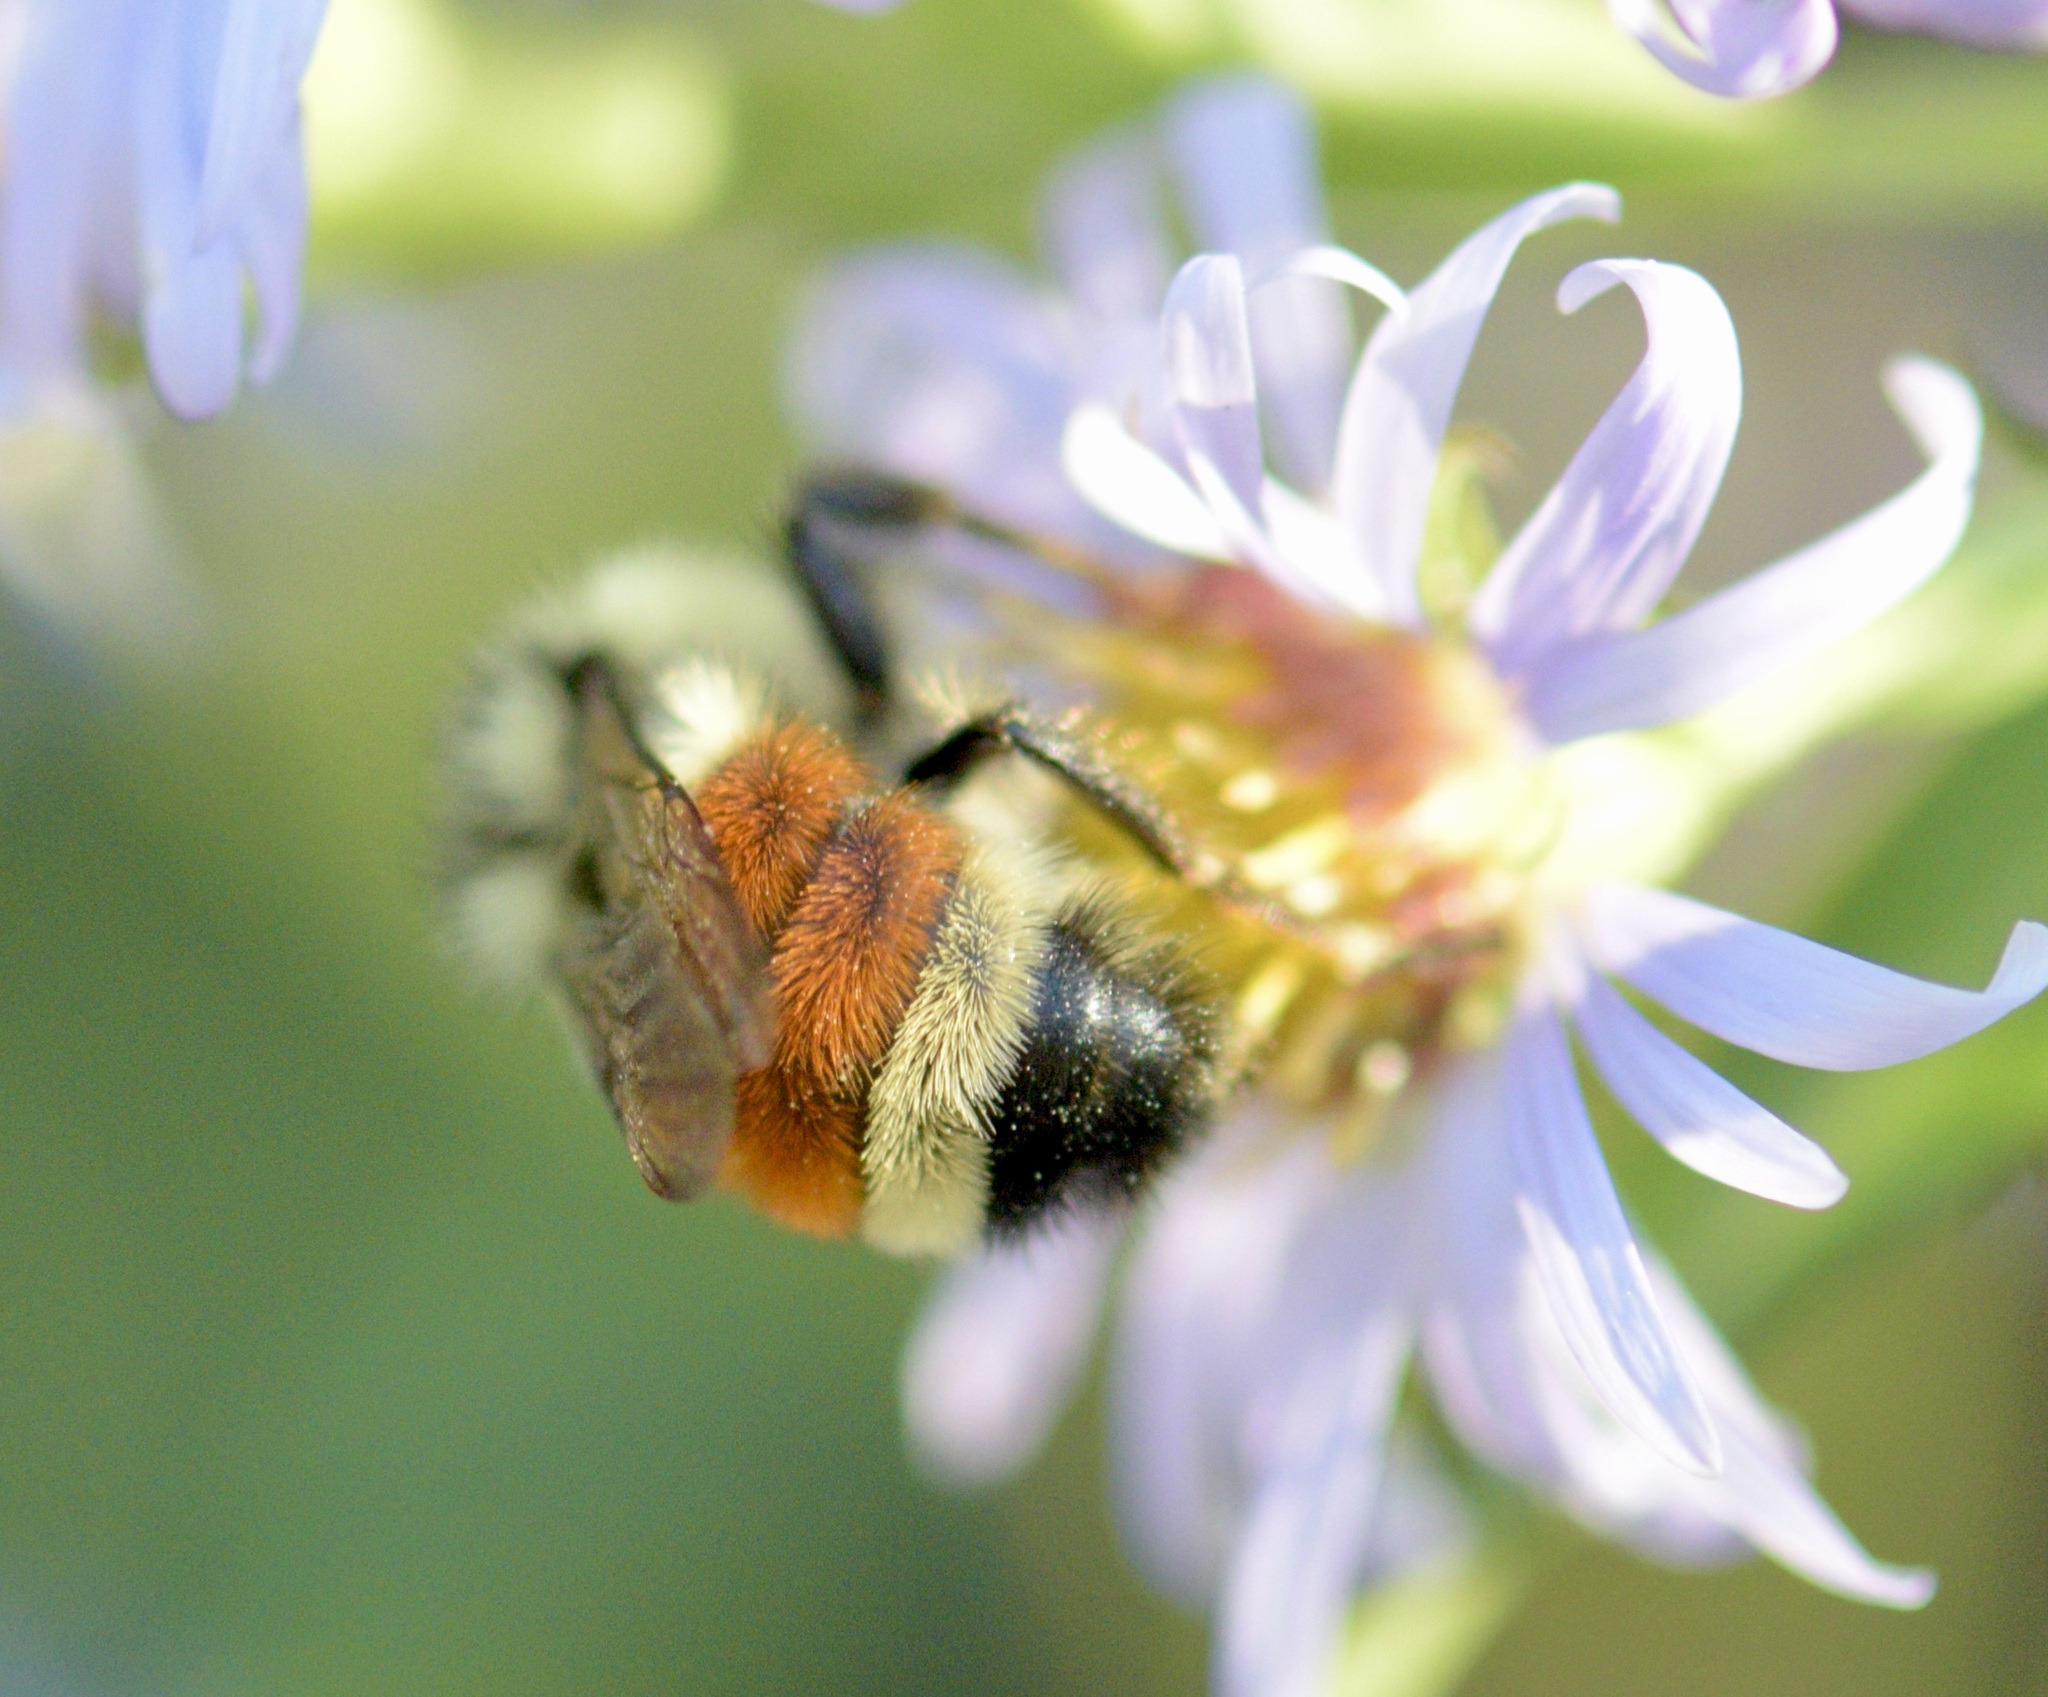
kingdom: Animalia
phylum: Arthropoda
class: Insecta
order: Hymenoptera
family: Apidae
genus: Bombus
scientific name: Bombus ternarius
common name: Tri-colored bumble bee
